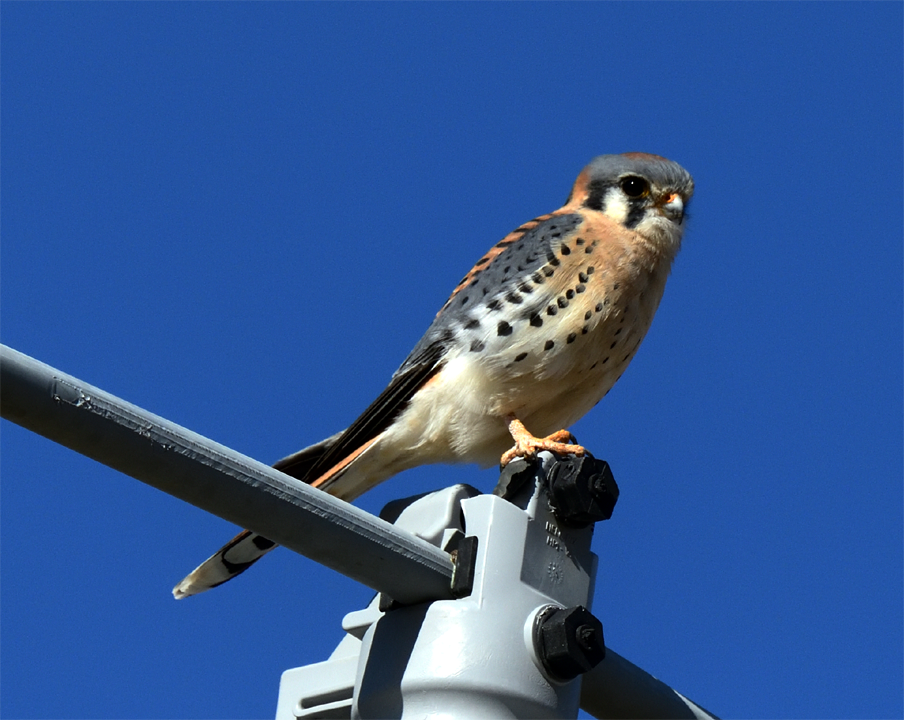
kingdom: Animalia
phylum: Chordata
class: Aves
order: Falconiformes
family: Falconidae
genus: Falco
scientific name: Falco sparverius
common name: American kestrel
